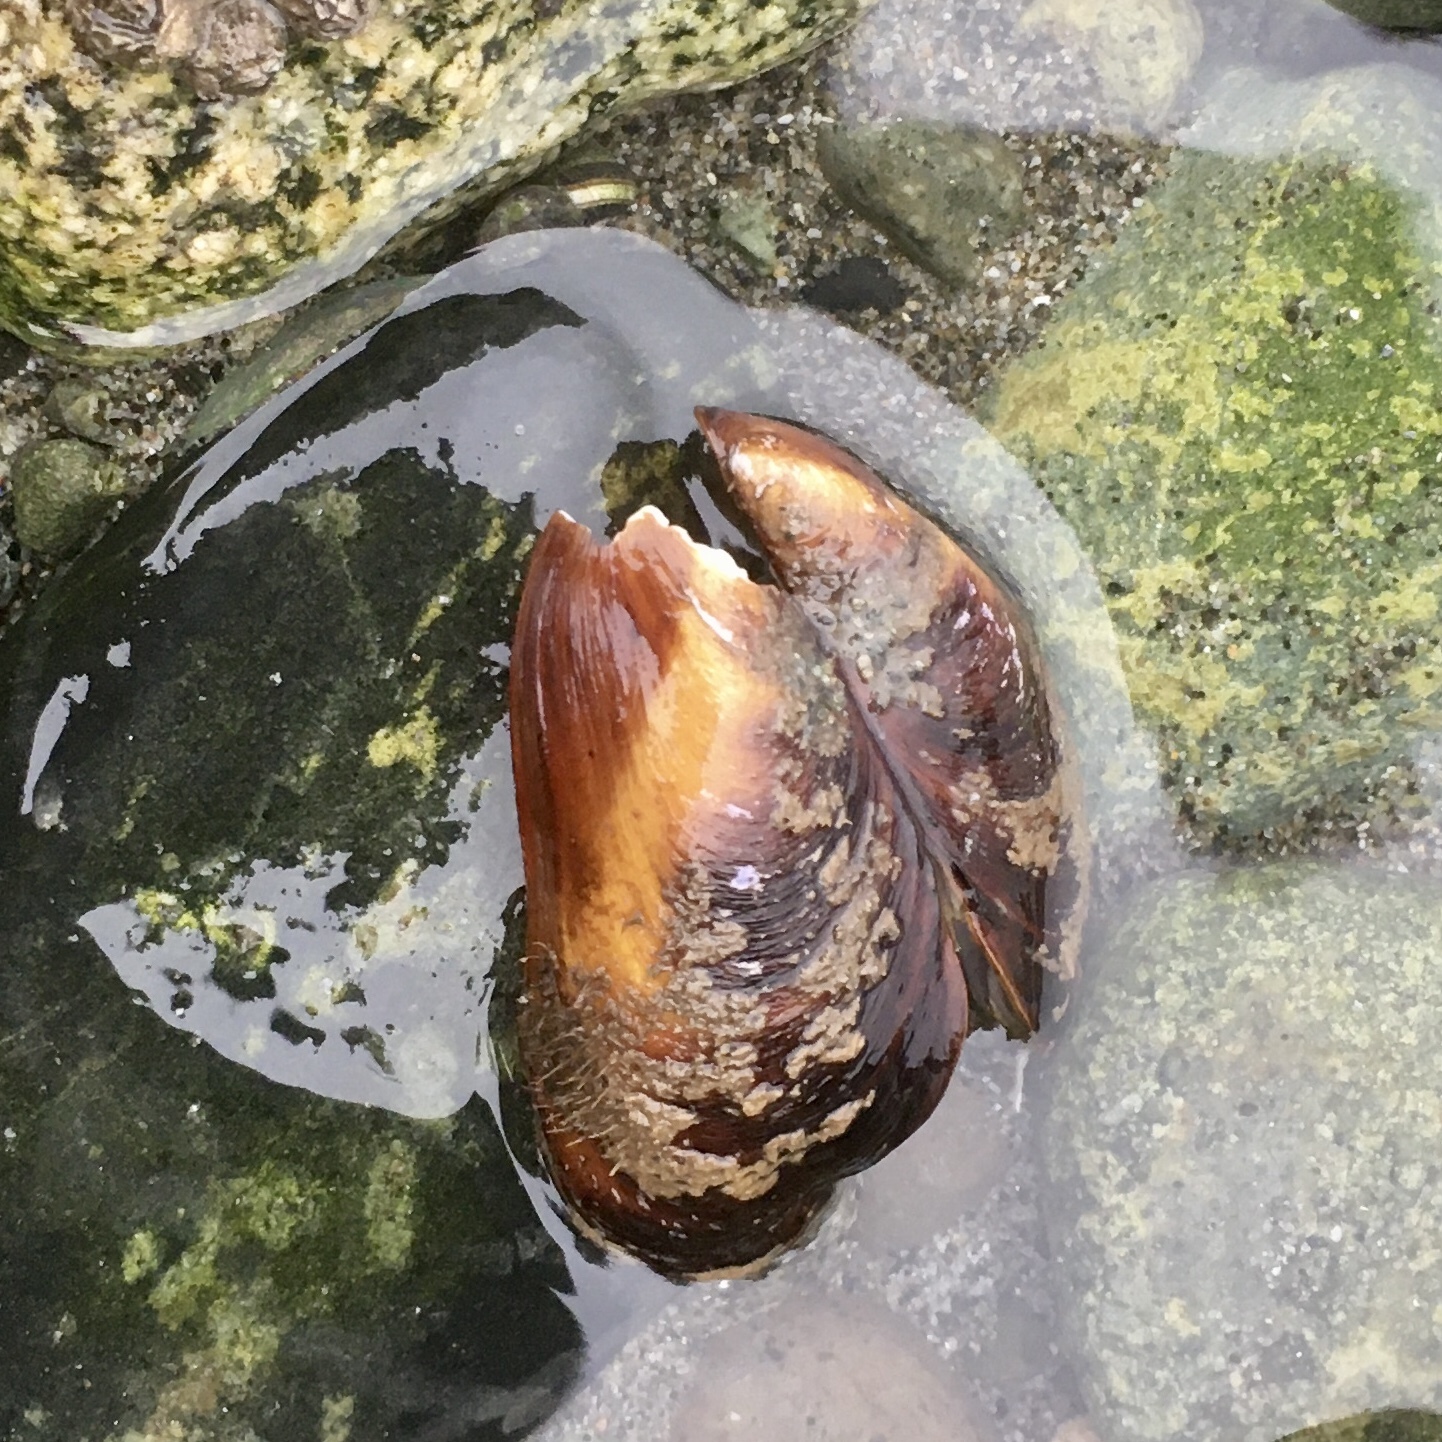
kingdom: Animalia
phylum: Mollusca
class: Bivalvia
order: Mytilida
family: Mytilidae
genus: Modiolus
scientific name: Modiolus modiolus
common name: Horse-mussel
